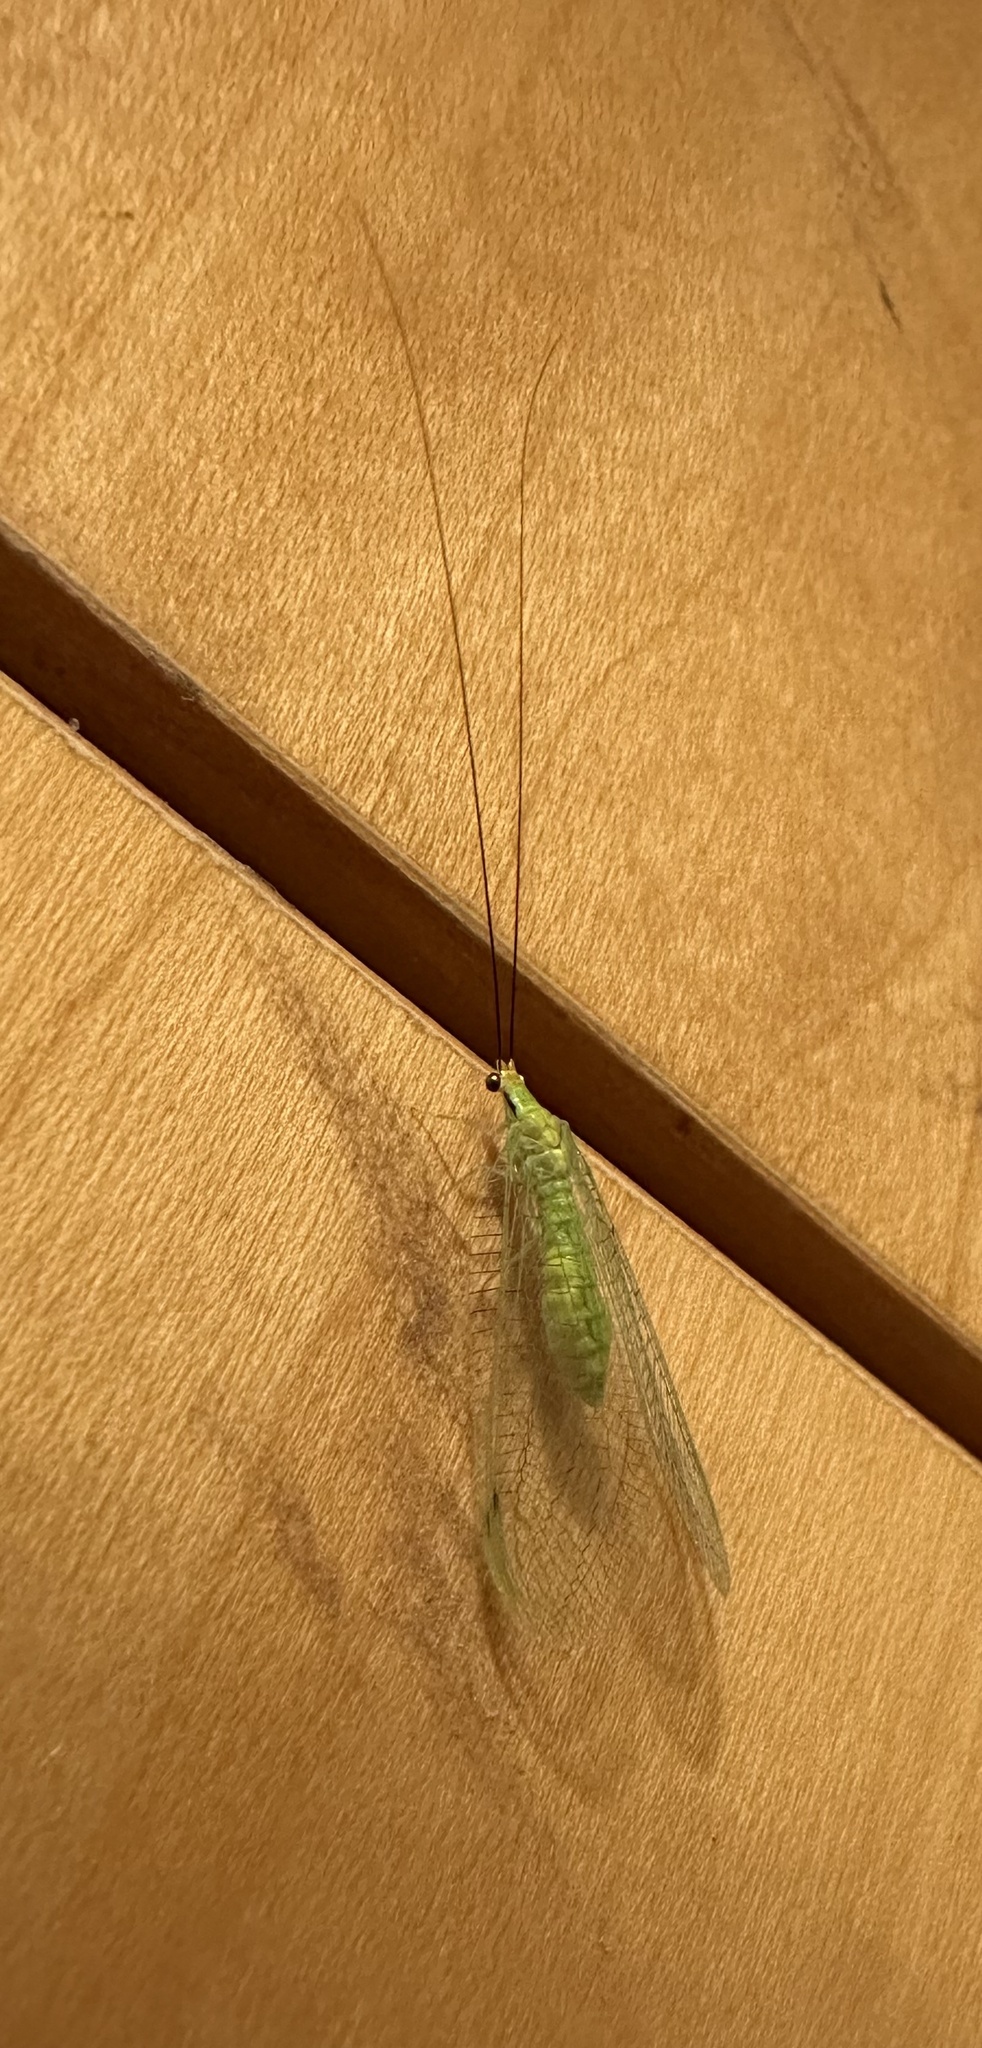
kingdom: Animalia
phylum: Arthropoda
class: Insecta
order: Neuroptera
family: Chrysopidae
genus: Leucochrysa
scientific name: Leucochrysa pavida
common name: Lichen-carrying green lacewing
